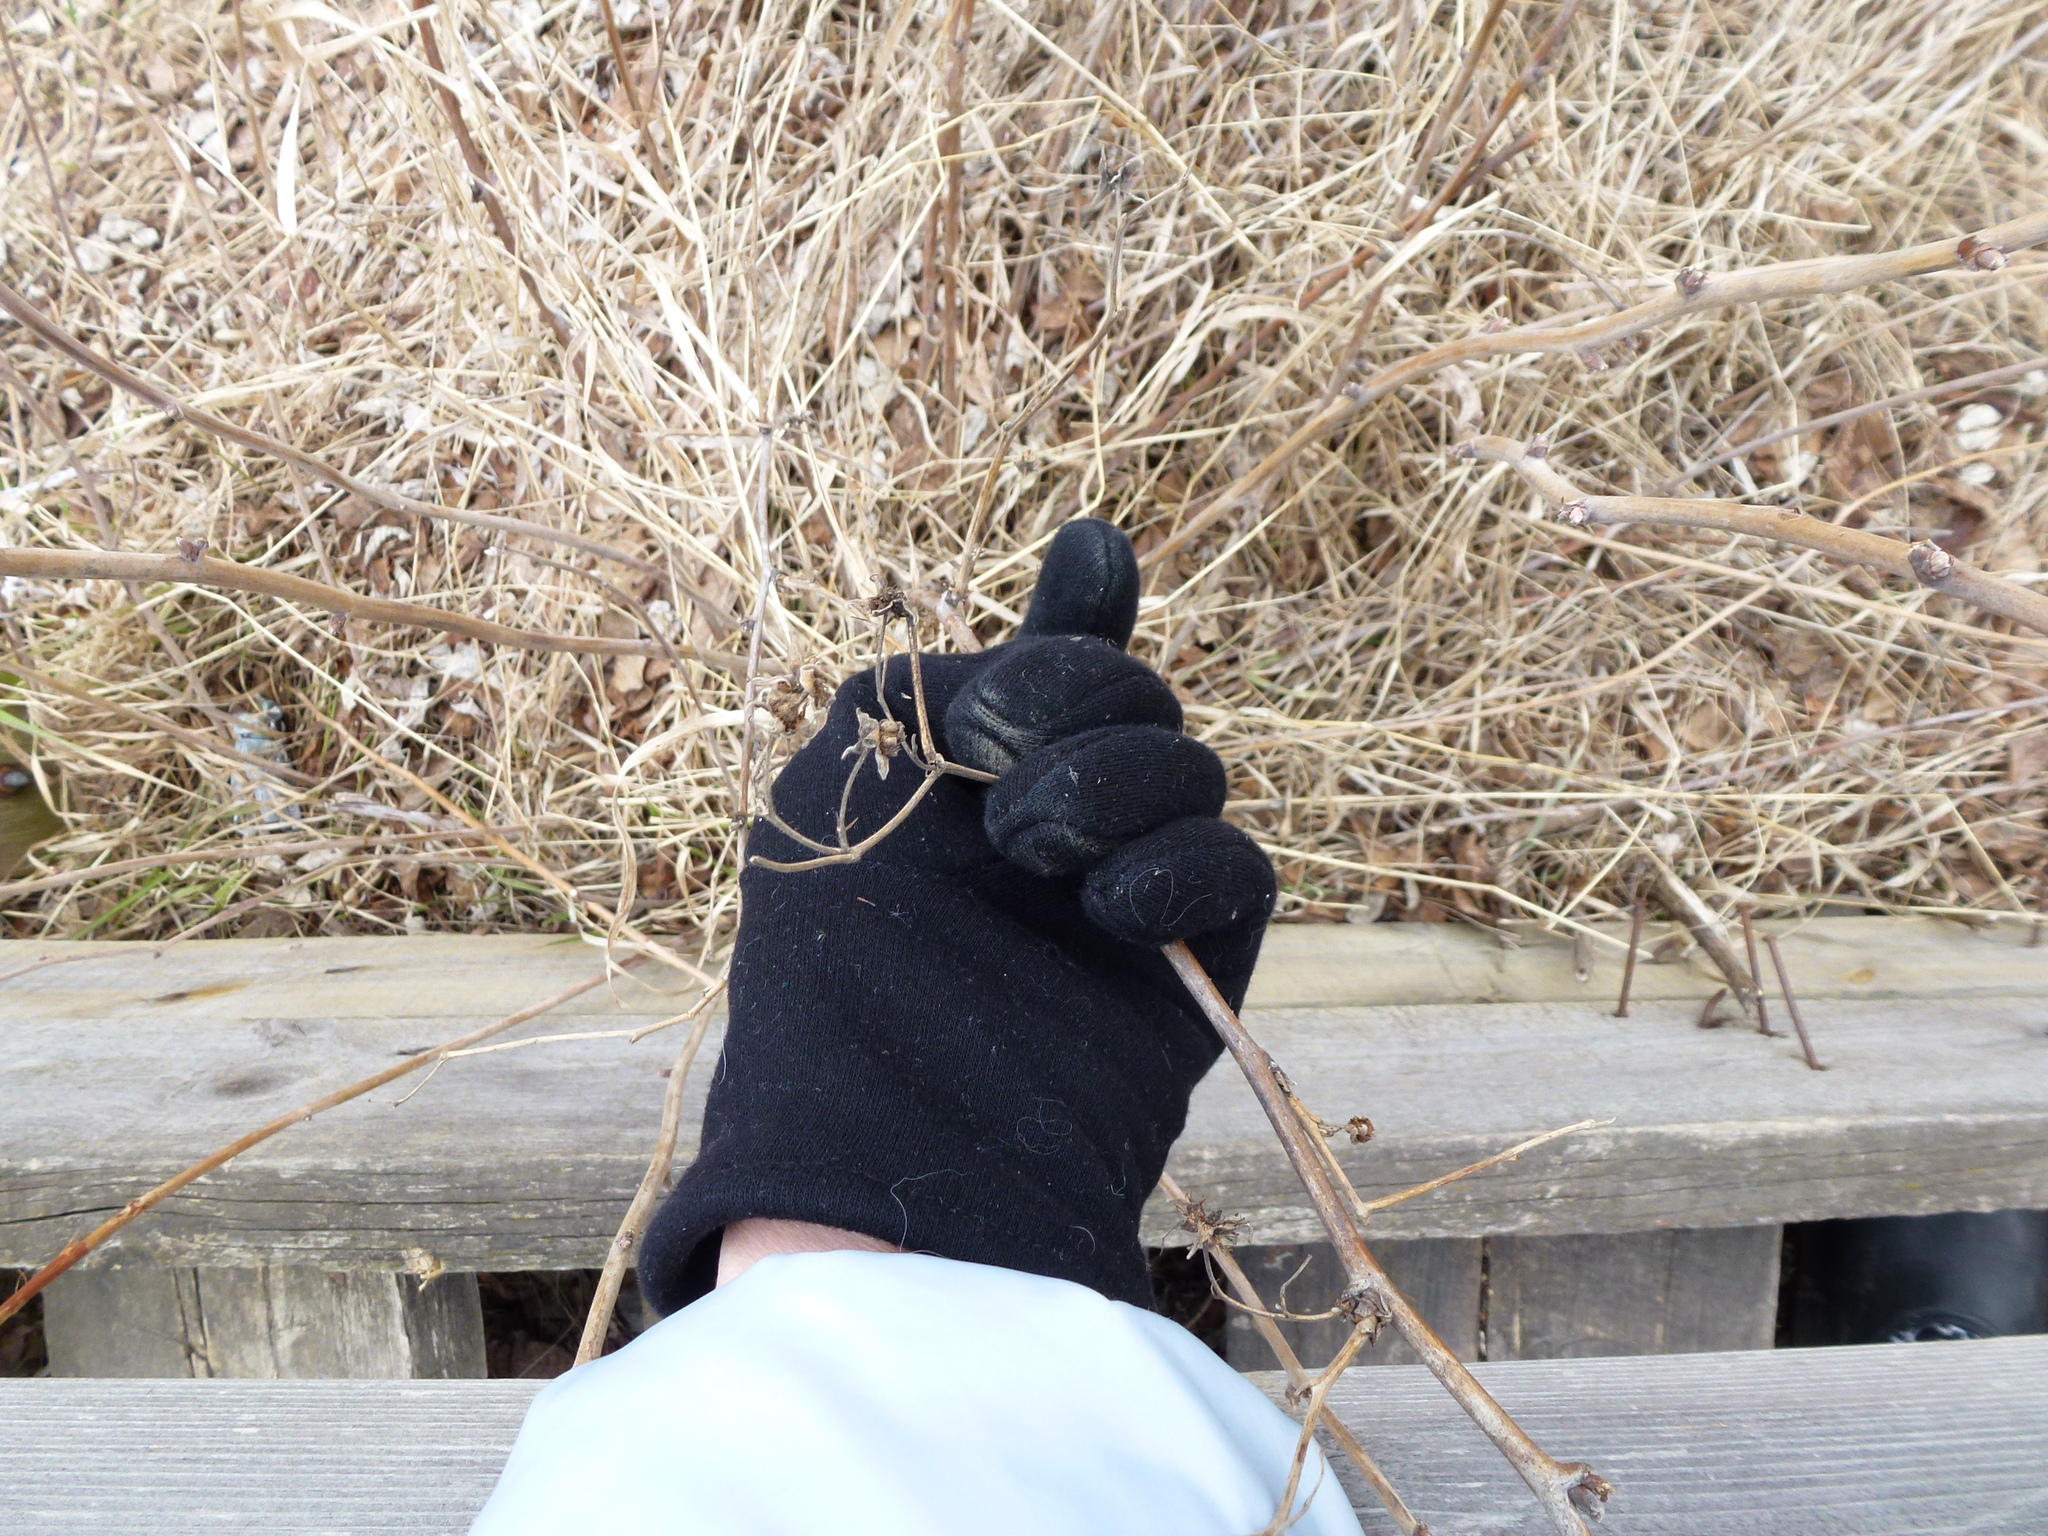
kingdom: Plantae
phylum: Tracheophyta
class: Magnoliopsida
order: Rosales
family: Rosaceae
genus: Rubus
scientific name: Rubus sachalinensis
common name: Red raspberry
